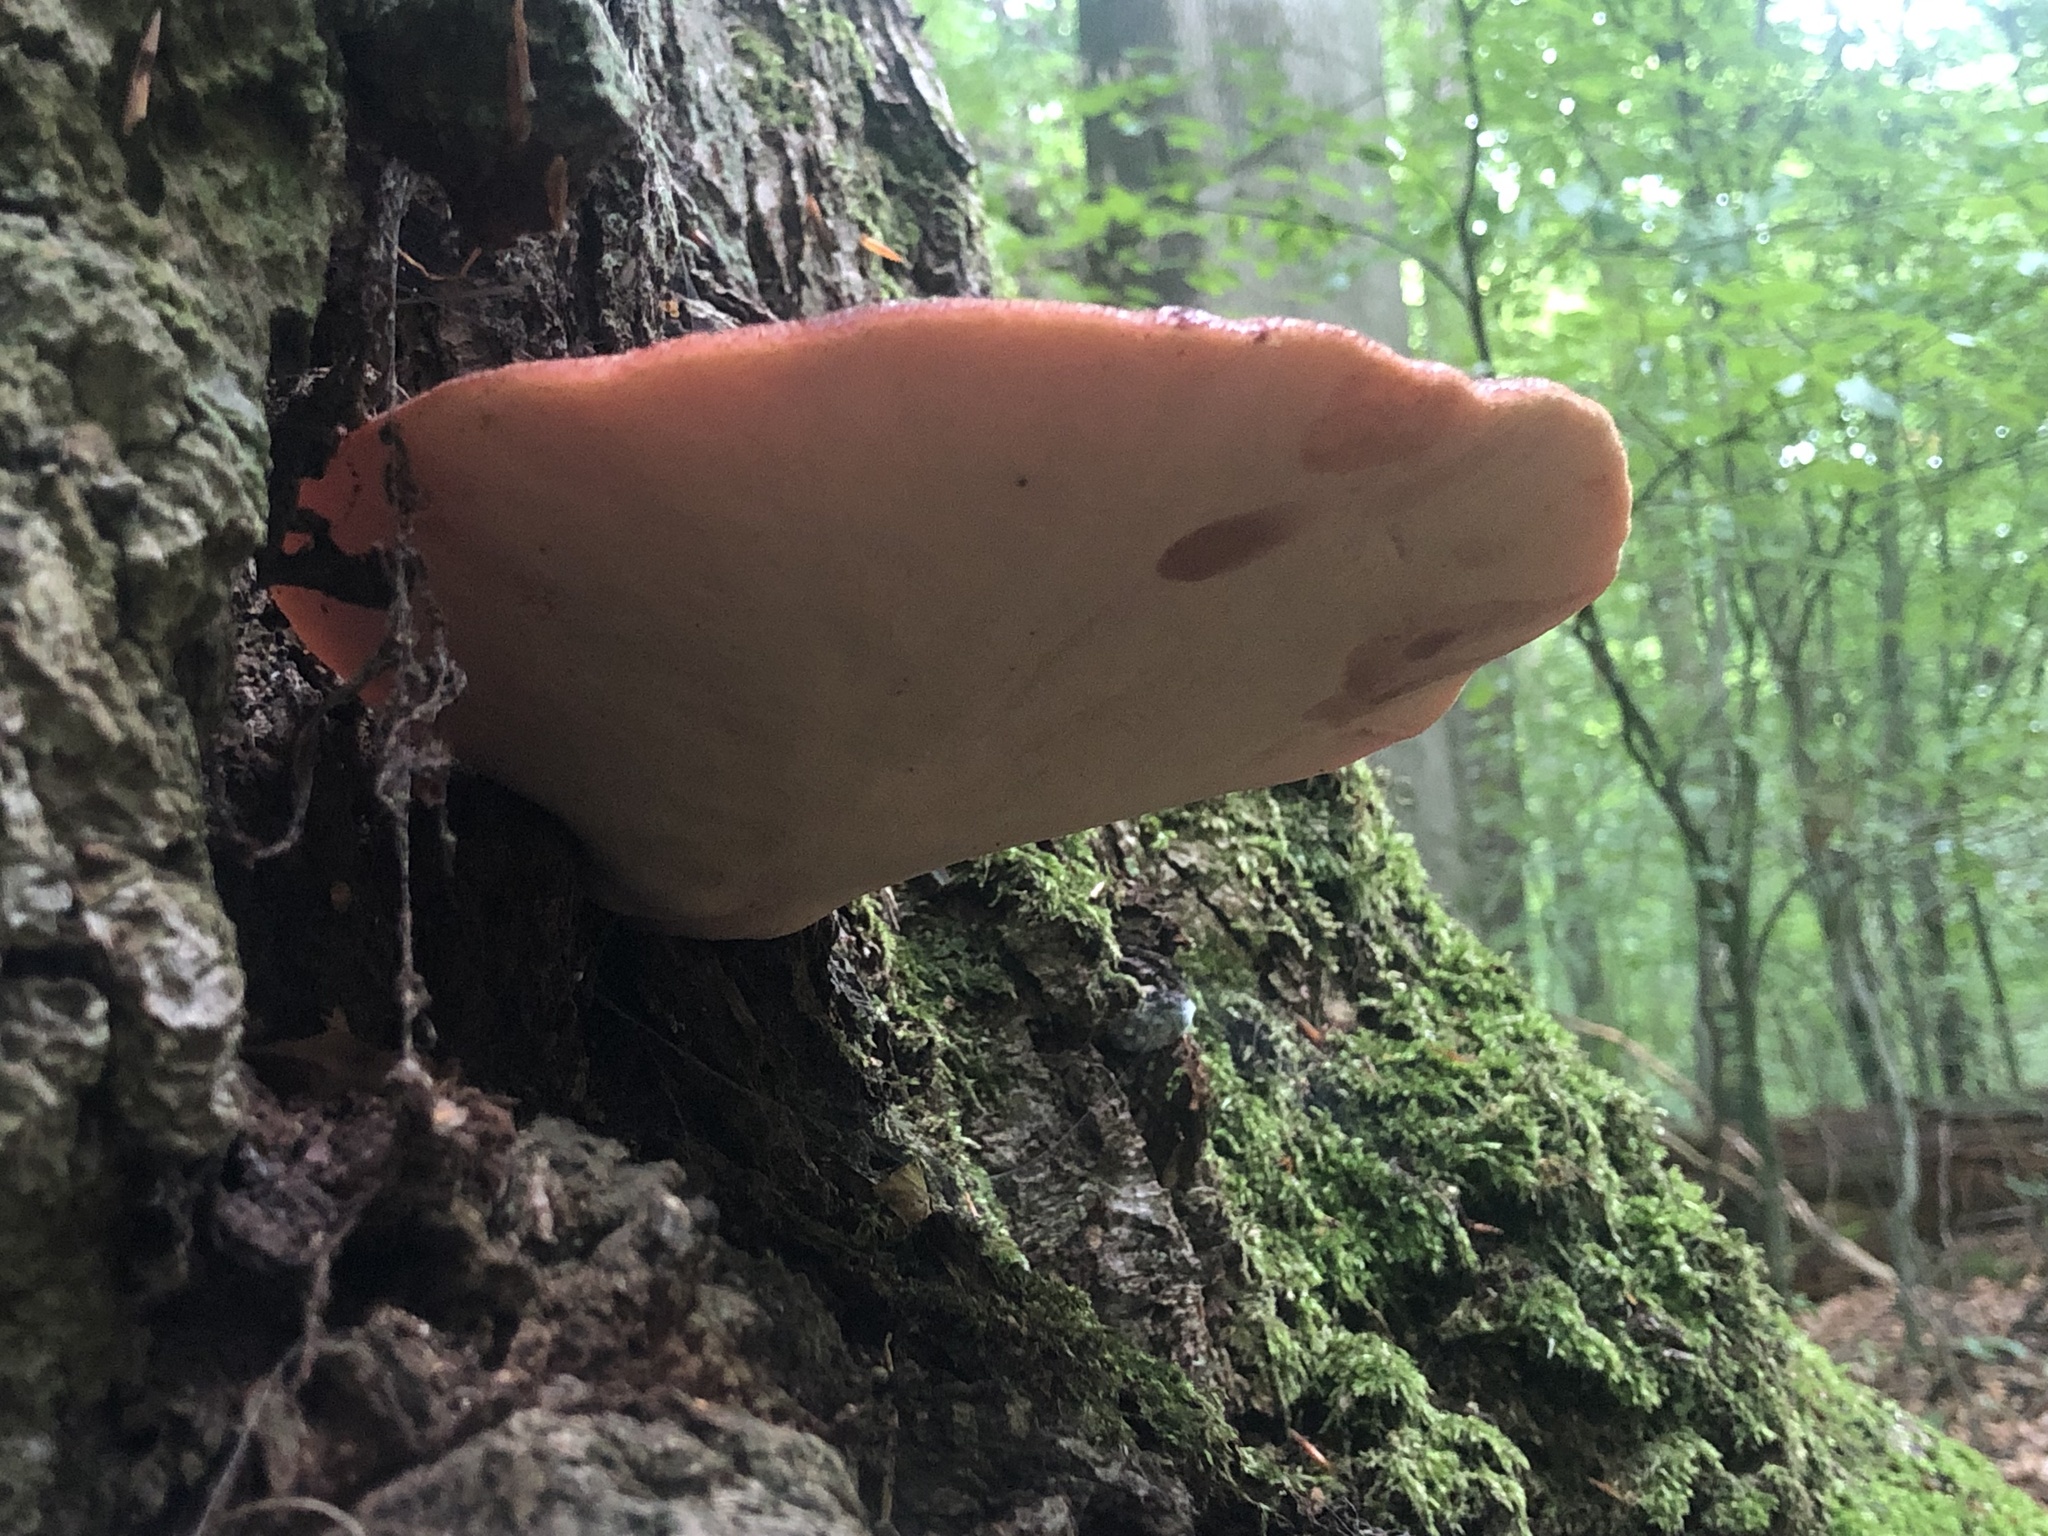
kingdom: Fungi
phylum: Basidiomycota
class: Agaricomycetes
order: Agaricales
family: Fistulinaceae
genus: Fistulina
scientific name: Fistulina hepatica
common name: Beef-steak fungus
